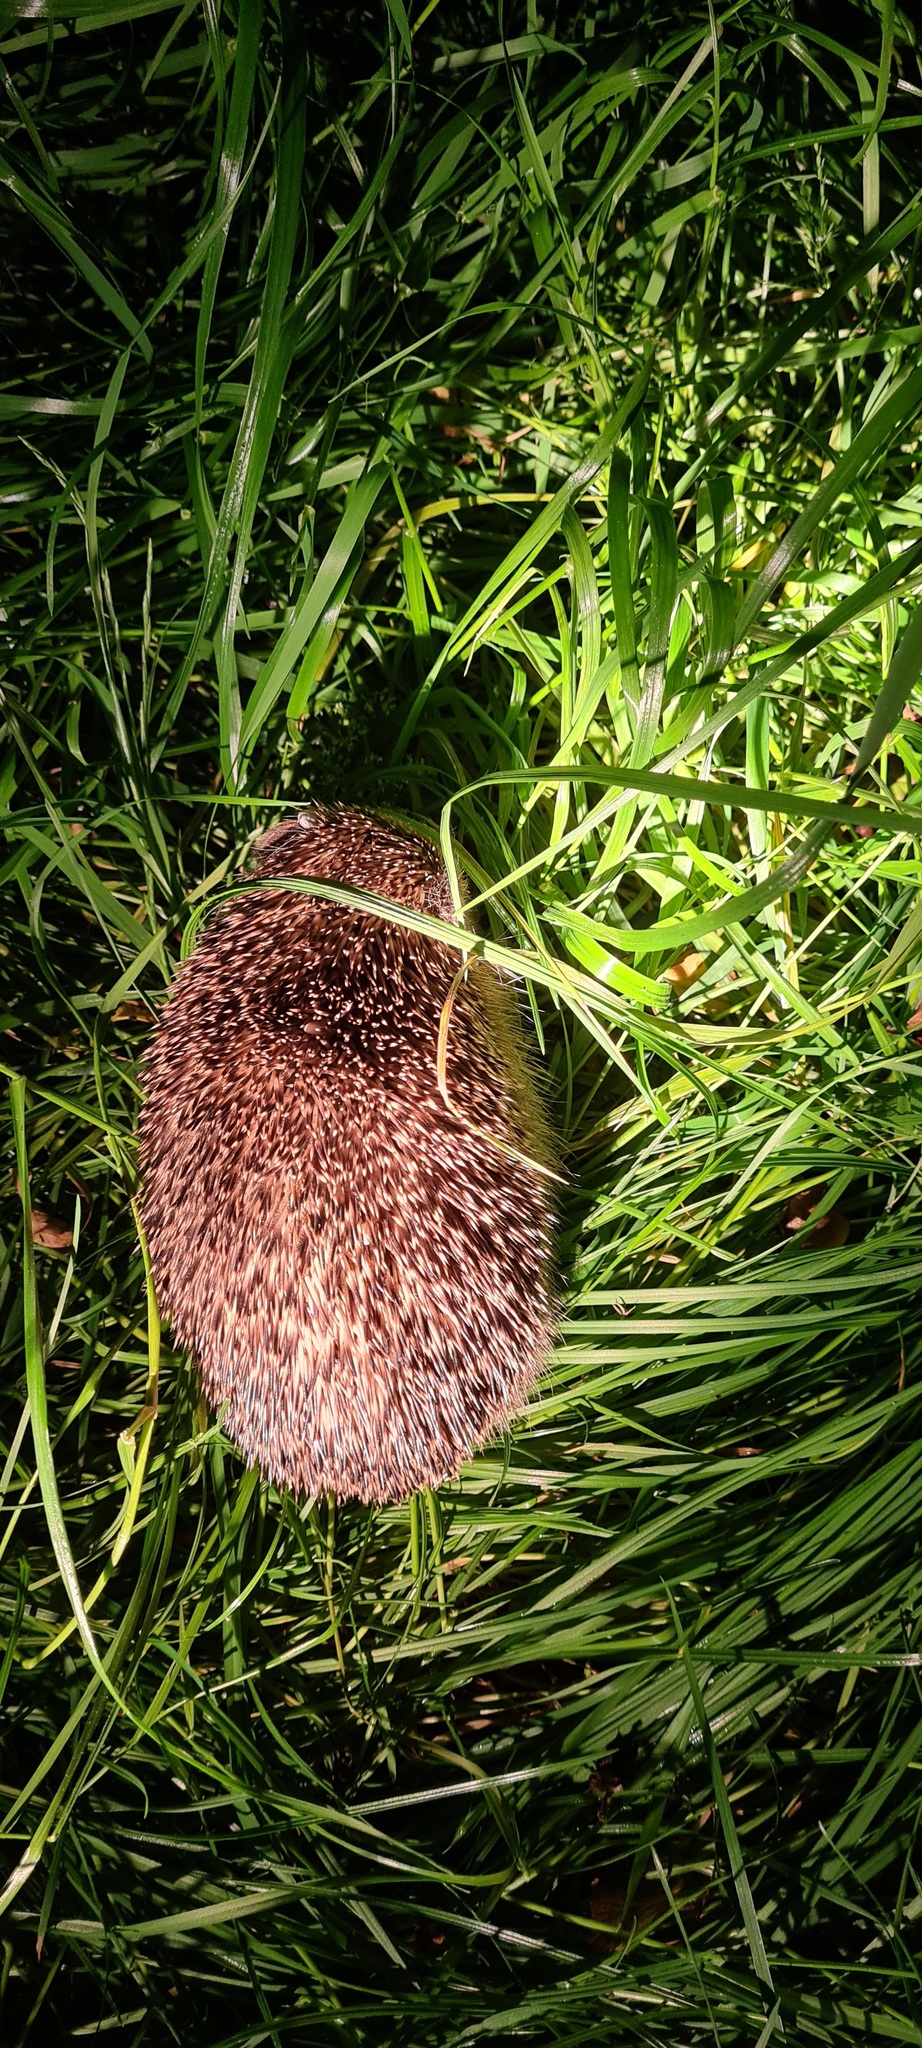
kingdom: Animalia
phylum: Chordata
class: Mammalia
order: Erinaceomorpha
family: Erinaceidae
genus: Erinaceus
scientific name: Erinaceus europaeus
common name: West european hedgehog
